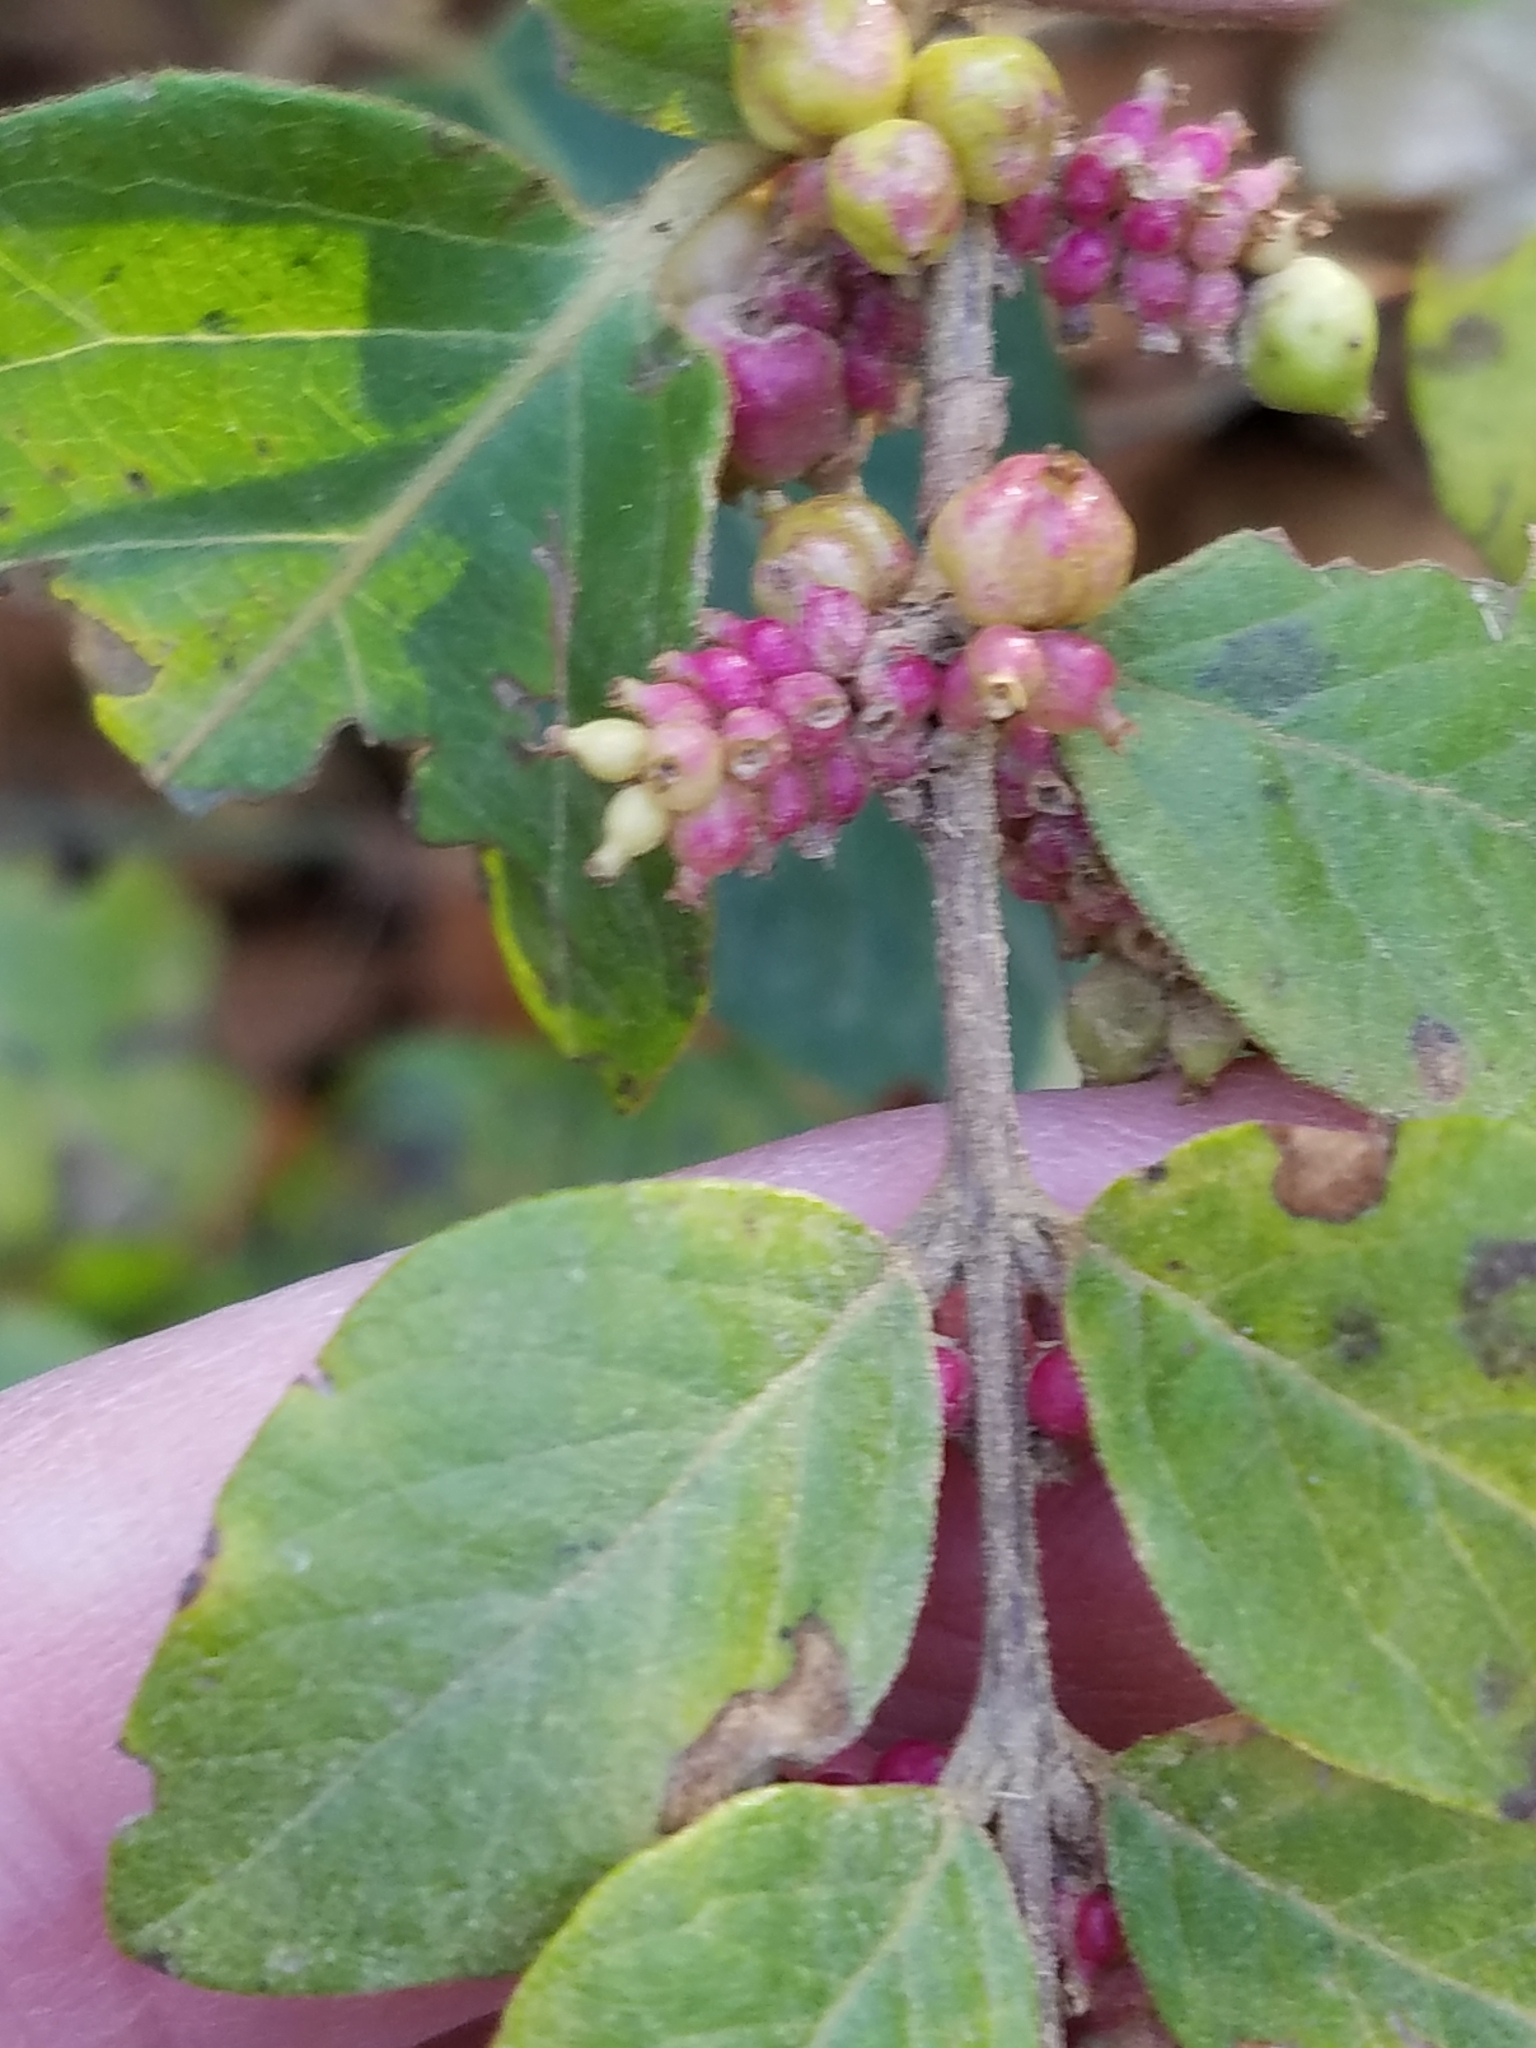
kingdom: Plantae
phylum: Tracheophyta
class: Magnoliopsida
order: Dipsacales
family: Caprifoliaceae
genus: Symphoricarpos
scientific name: Symphoricarpos orbiculatus
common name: Coralberry
